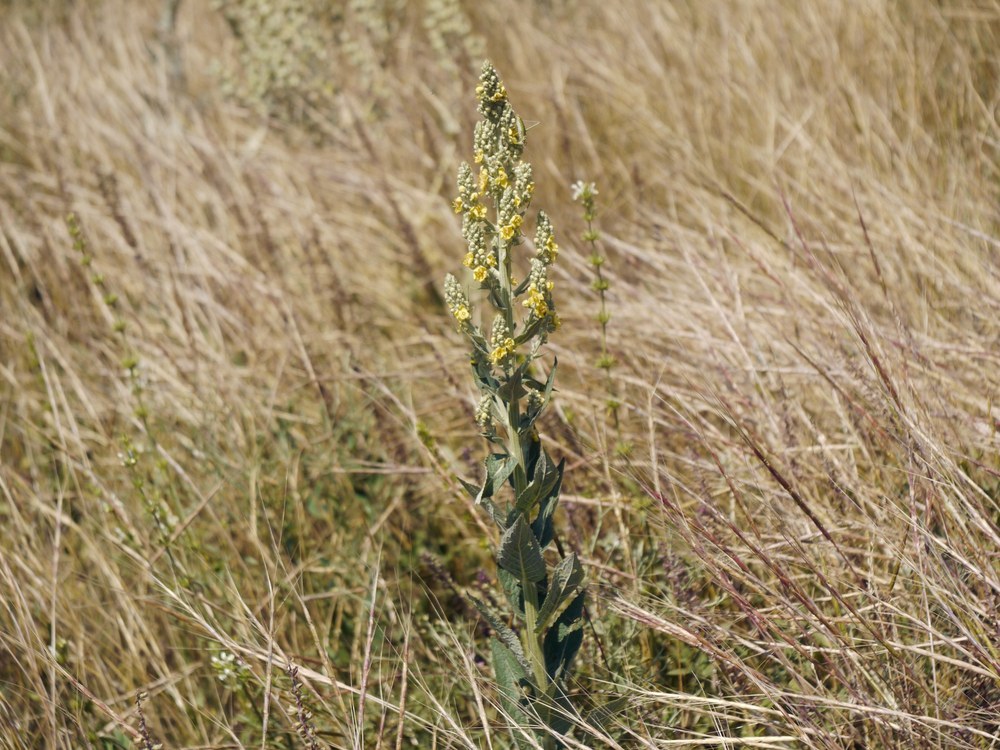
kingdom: Plantae
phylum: Tracheophyta
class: Magnoliopsida
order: Lamiales
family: Scrophulariaceae
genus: Verbascum
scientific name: Verbascum lychnitis
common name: White mullein
